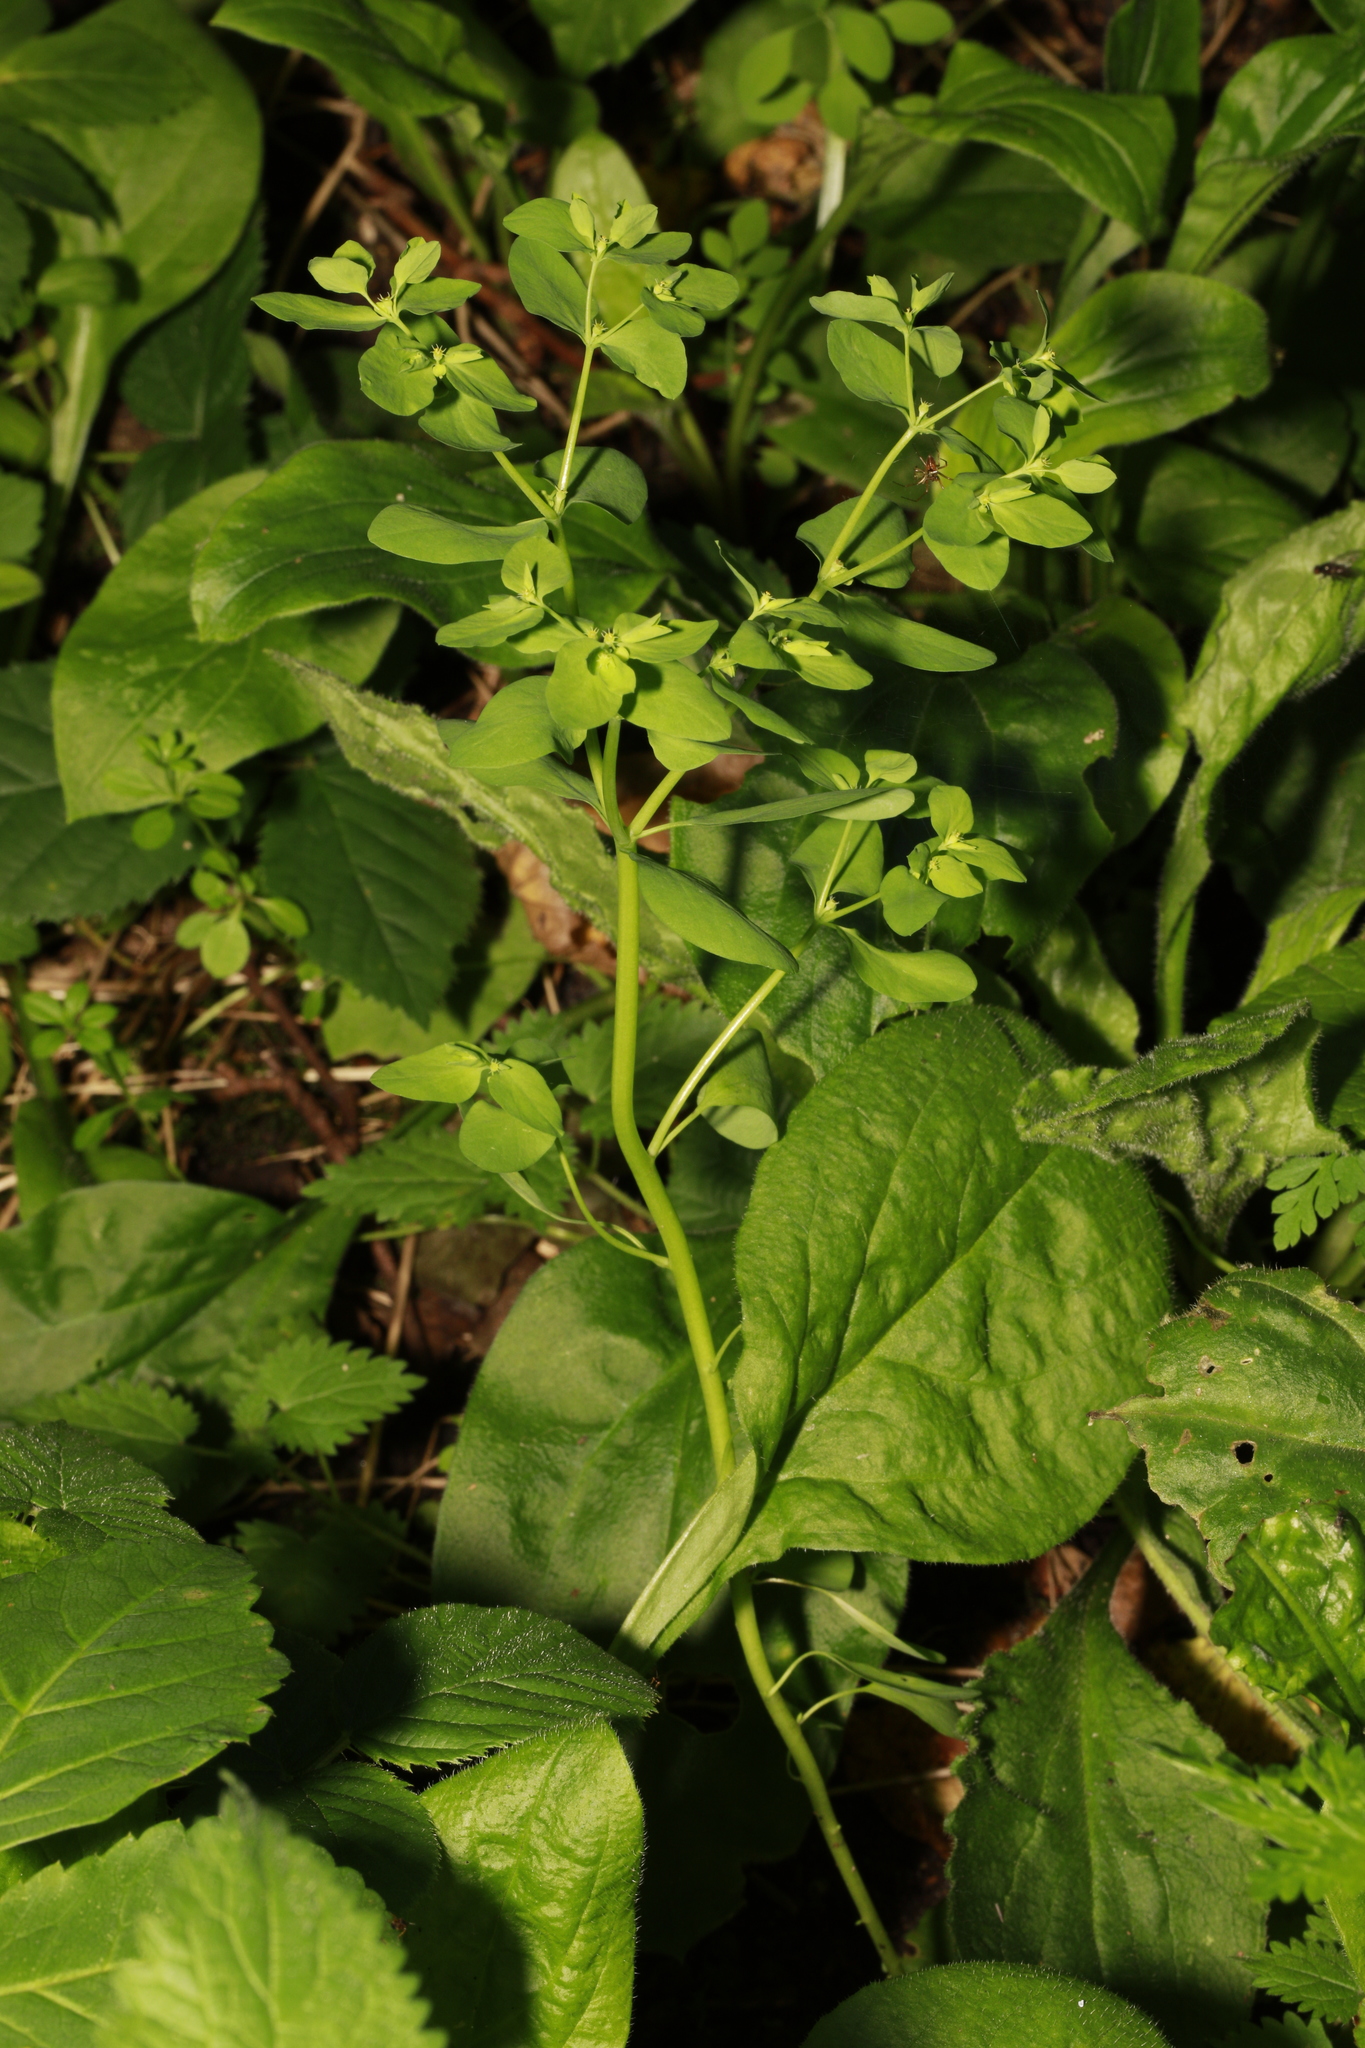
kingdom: Plantae
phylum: Tracheophyta
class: Magnoliopsida
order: Malpighiales
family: Euphorbiaceae
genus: Euphorbia
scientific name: Euphorbia peplus
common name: Petty spurge
